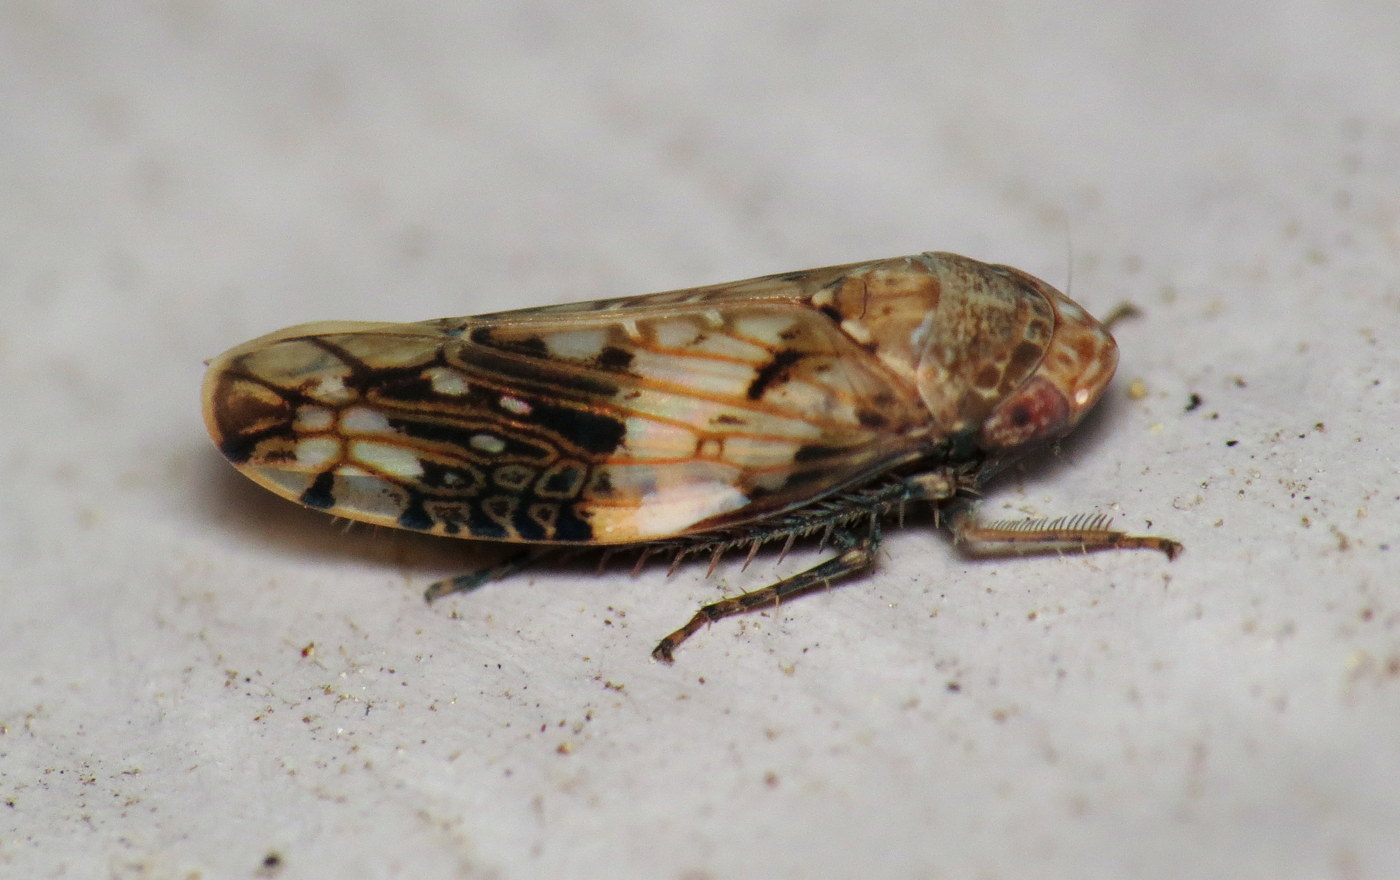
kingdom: Animalia
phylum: Arthropoda
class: Insecta
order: Hemiptera
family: Cicadellidae
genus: Menosoma
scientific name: Menosoma cinctum
